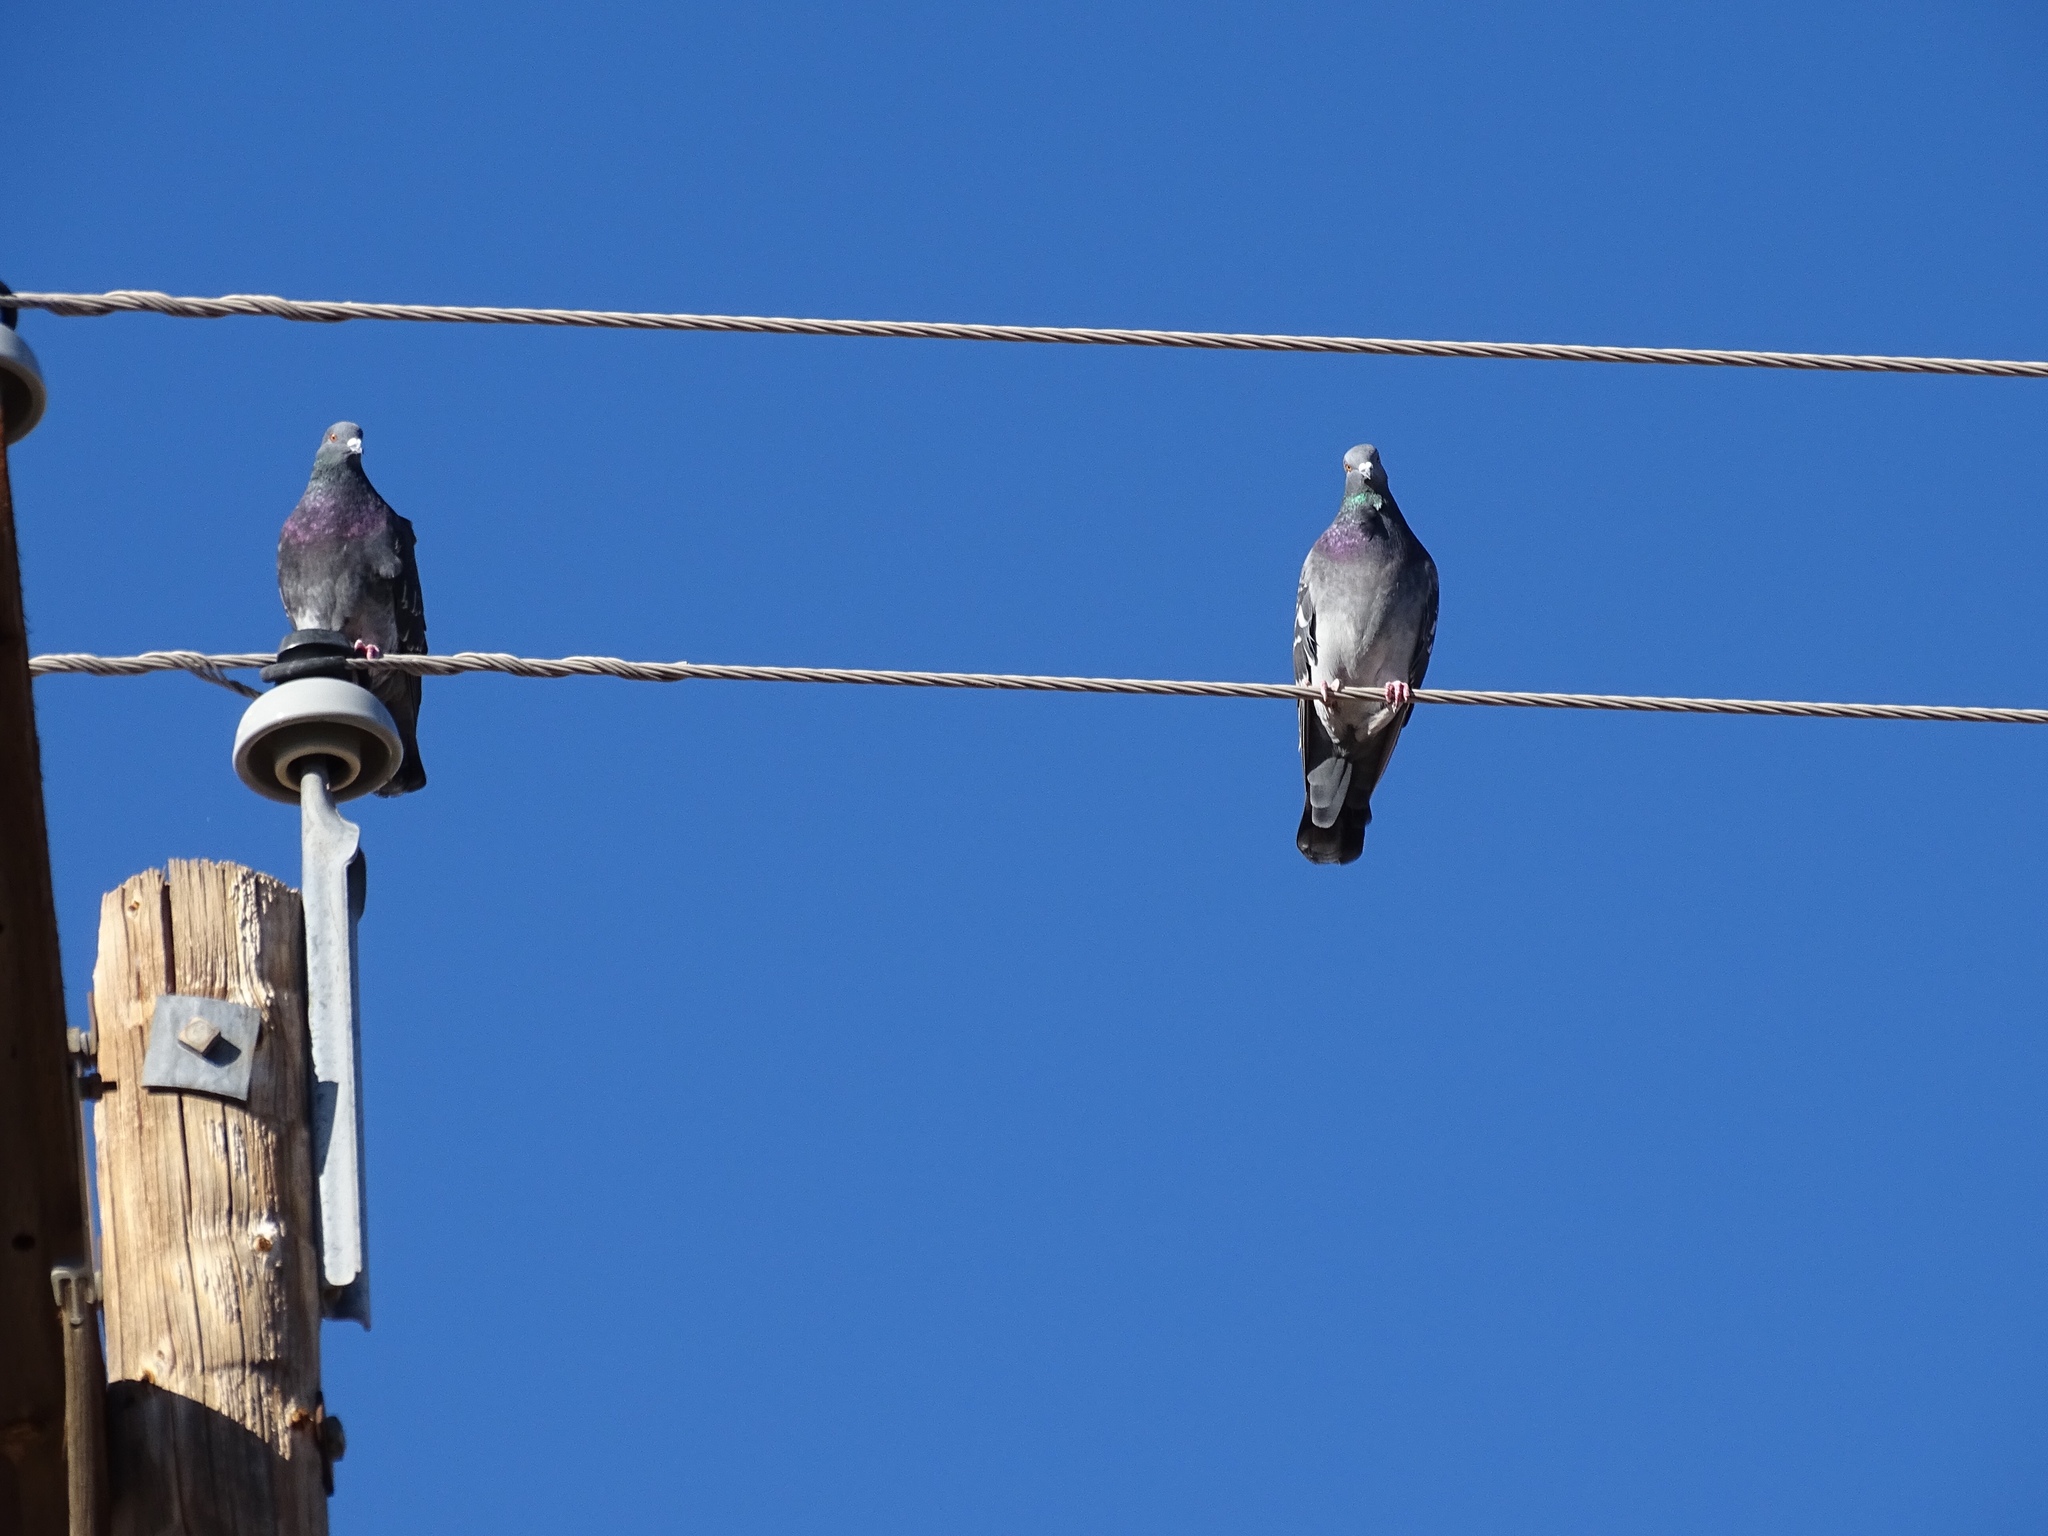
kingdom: Animalia
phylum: Chordata
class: Aves
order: Columbiformes
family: Columbidae
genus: Columba
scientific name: Columba livia
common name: Rock pigeon
